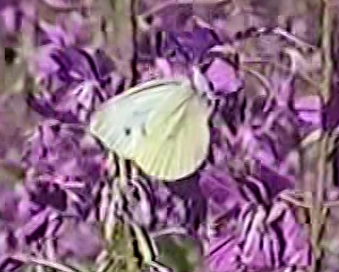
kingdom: Animalia
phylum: Arthropoda
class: Insecta
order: Lepidoptera
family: Pieridae
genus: Pieris
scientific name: Pieris napi
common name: Green-veined white
